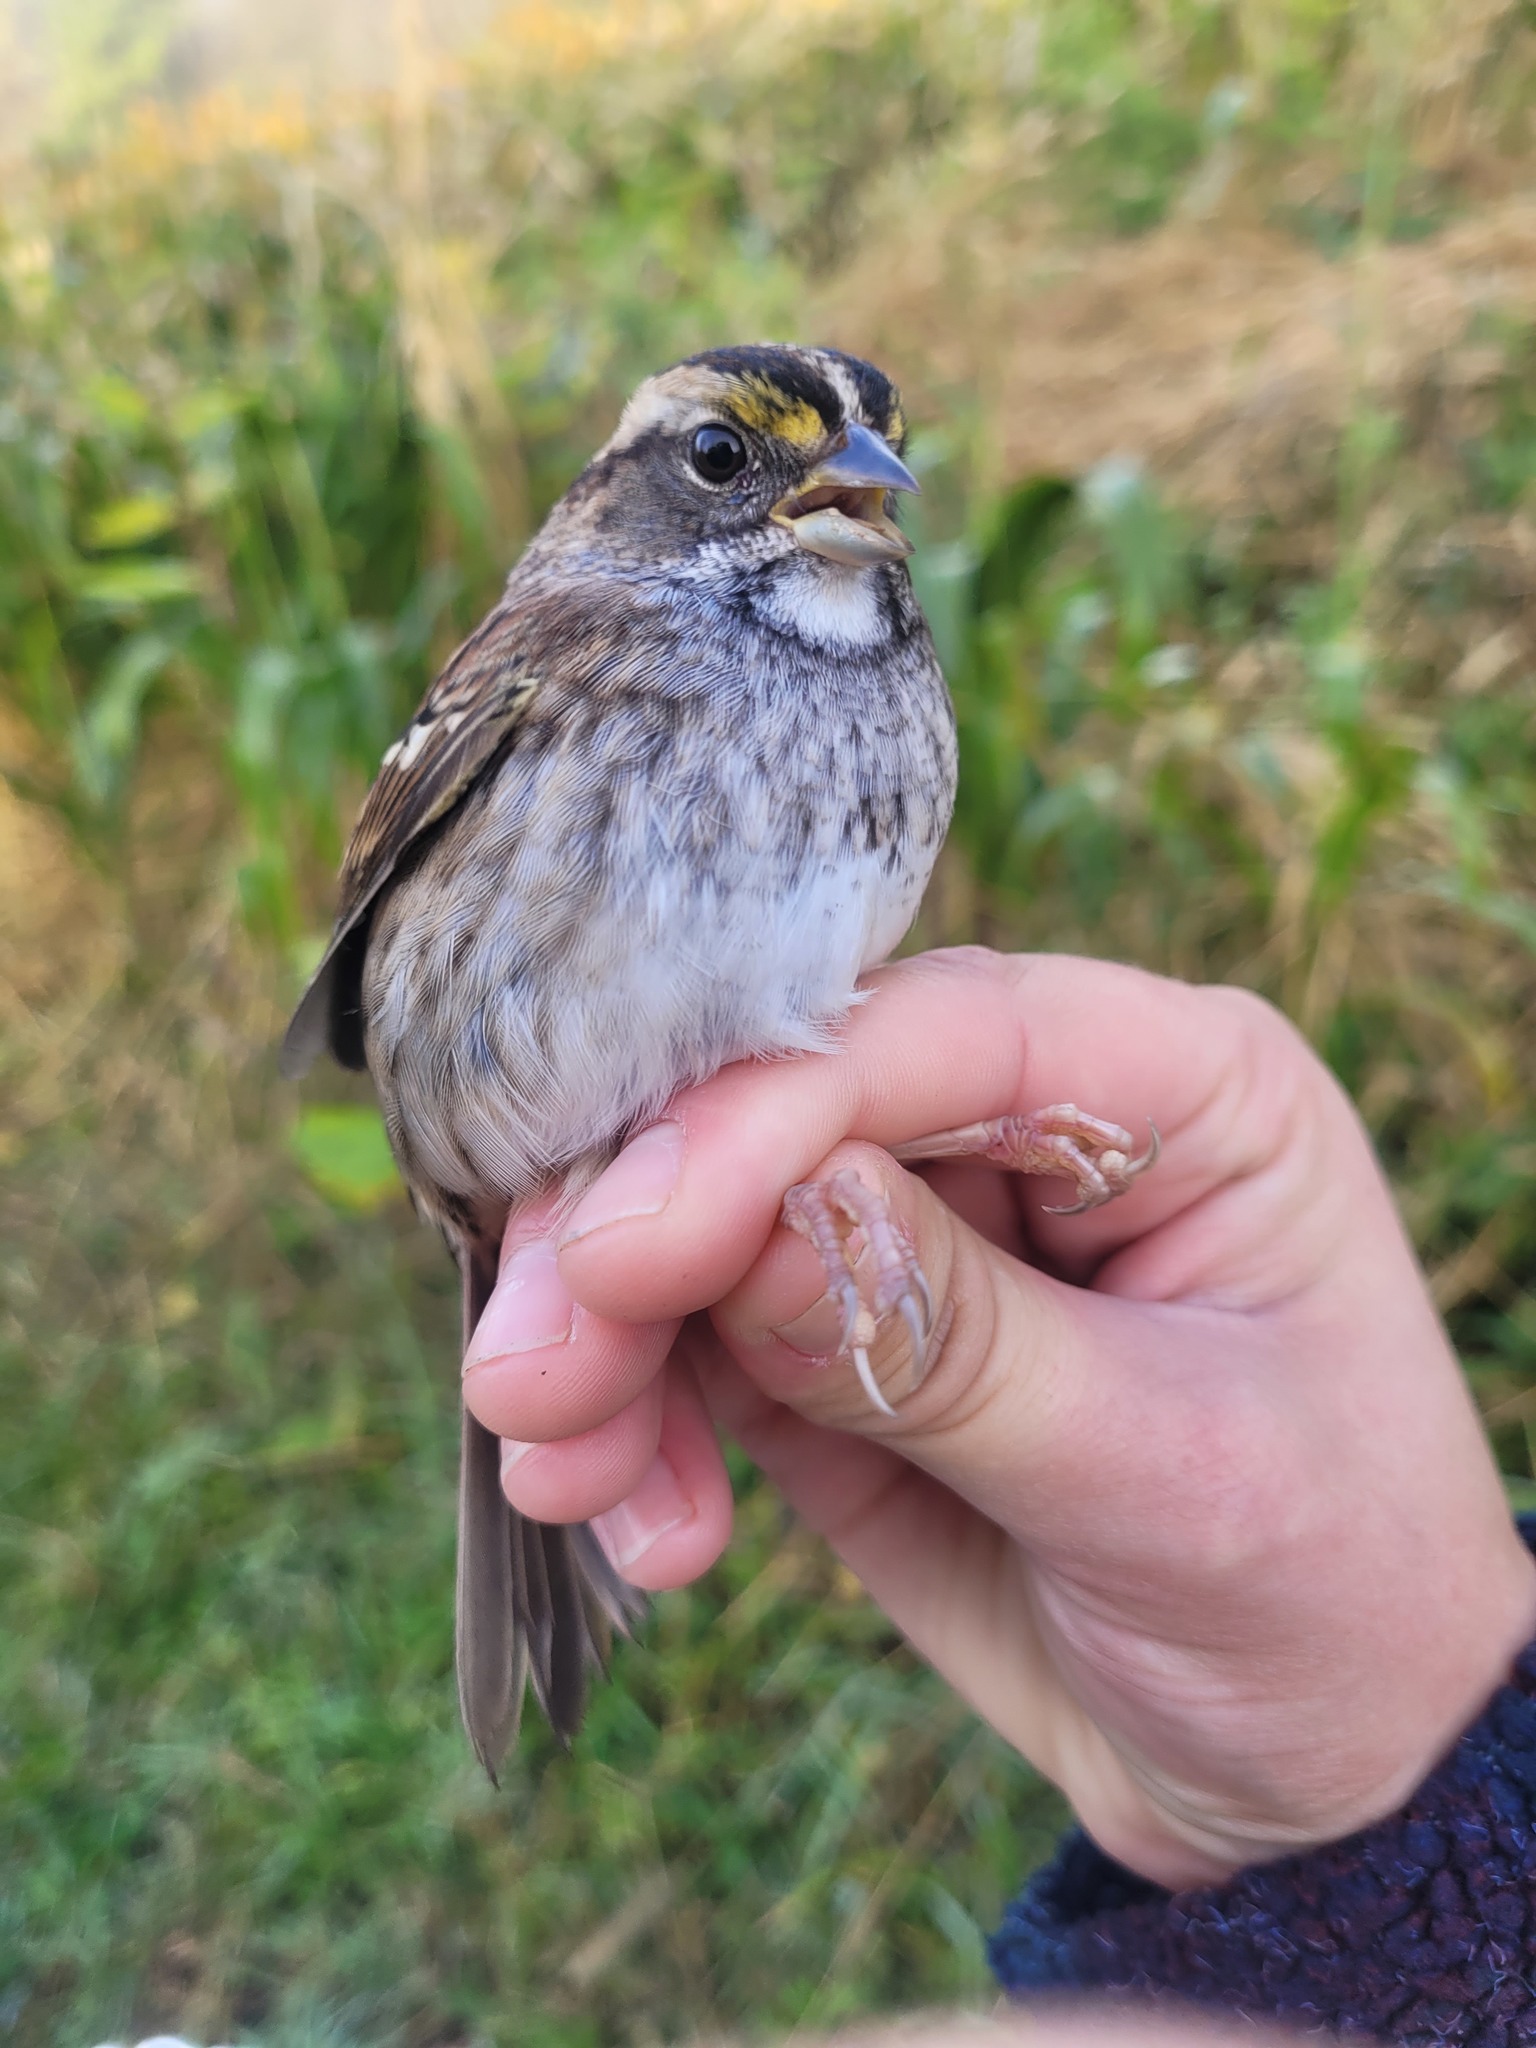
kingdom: Animalia
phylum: Chordata
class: Aves
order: Passeriformes
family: Passerellidae
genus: Zonotrichia
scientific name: Zonotrichia albicollis
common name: White-throated sparrow
